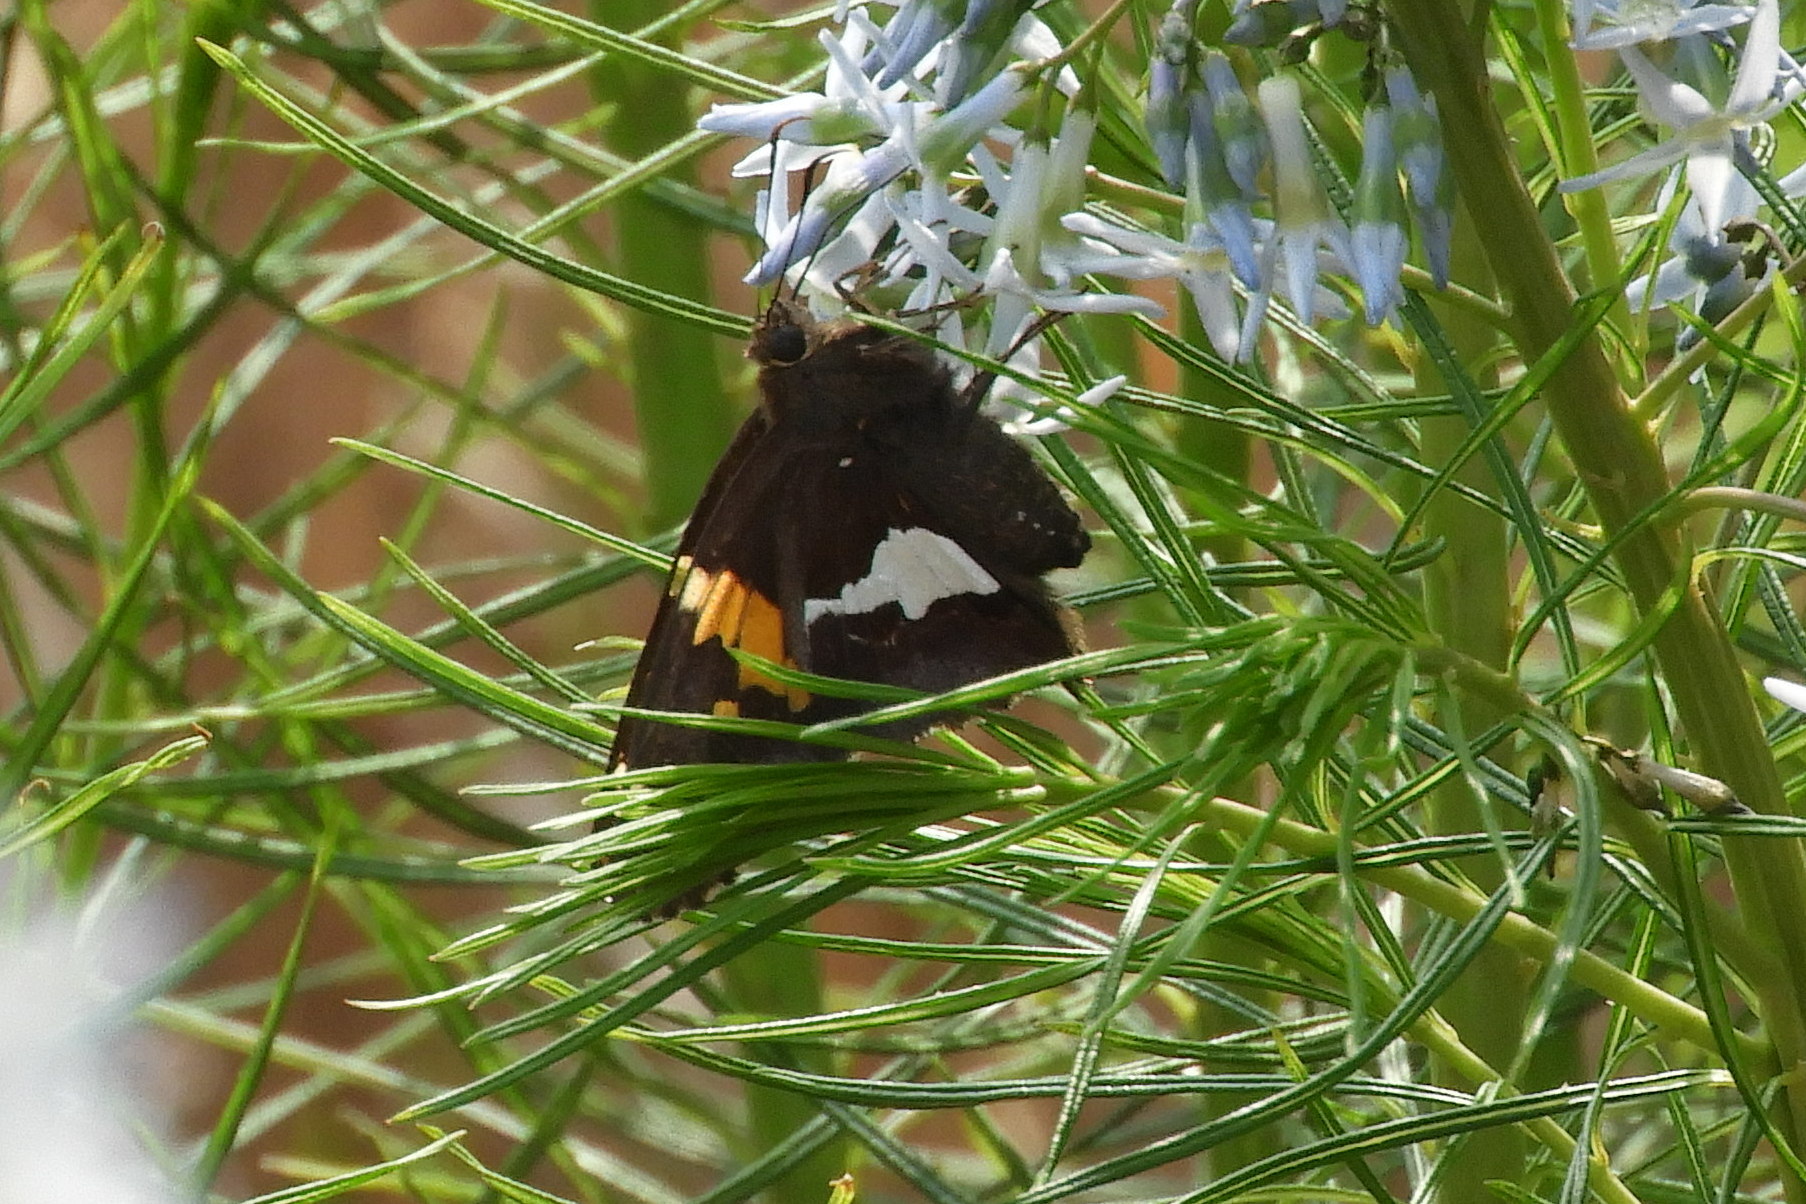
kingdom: Animalia
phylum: Arthropoda
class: Insecta
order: Lepidoptera
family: Hesperiidae
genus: Epargyreus
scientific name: Epargyreus clarus
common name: Silver-spotted skipper
